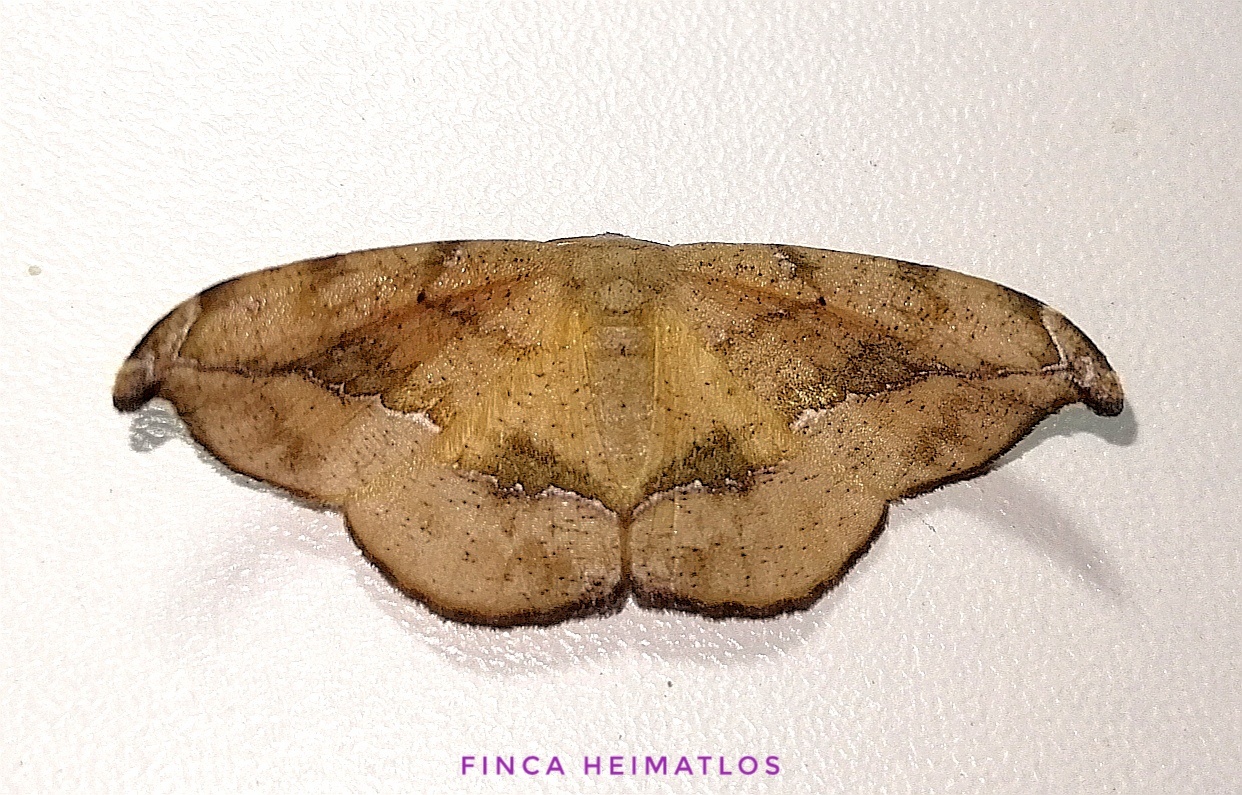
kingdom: Animalia
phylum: Arthropoda
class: Insecta
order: Lepidoptera
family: Geometridae
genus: Patalene
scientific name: Patalene asychisaria
